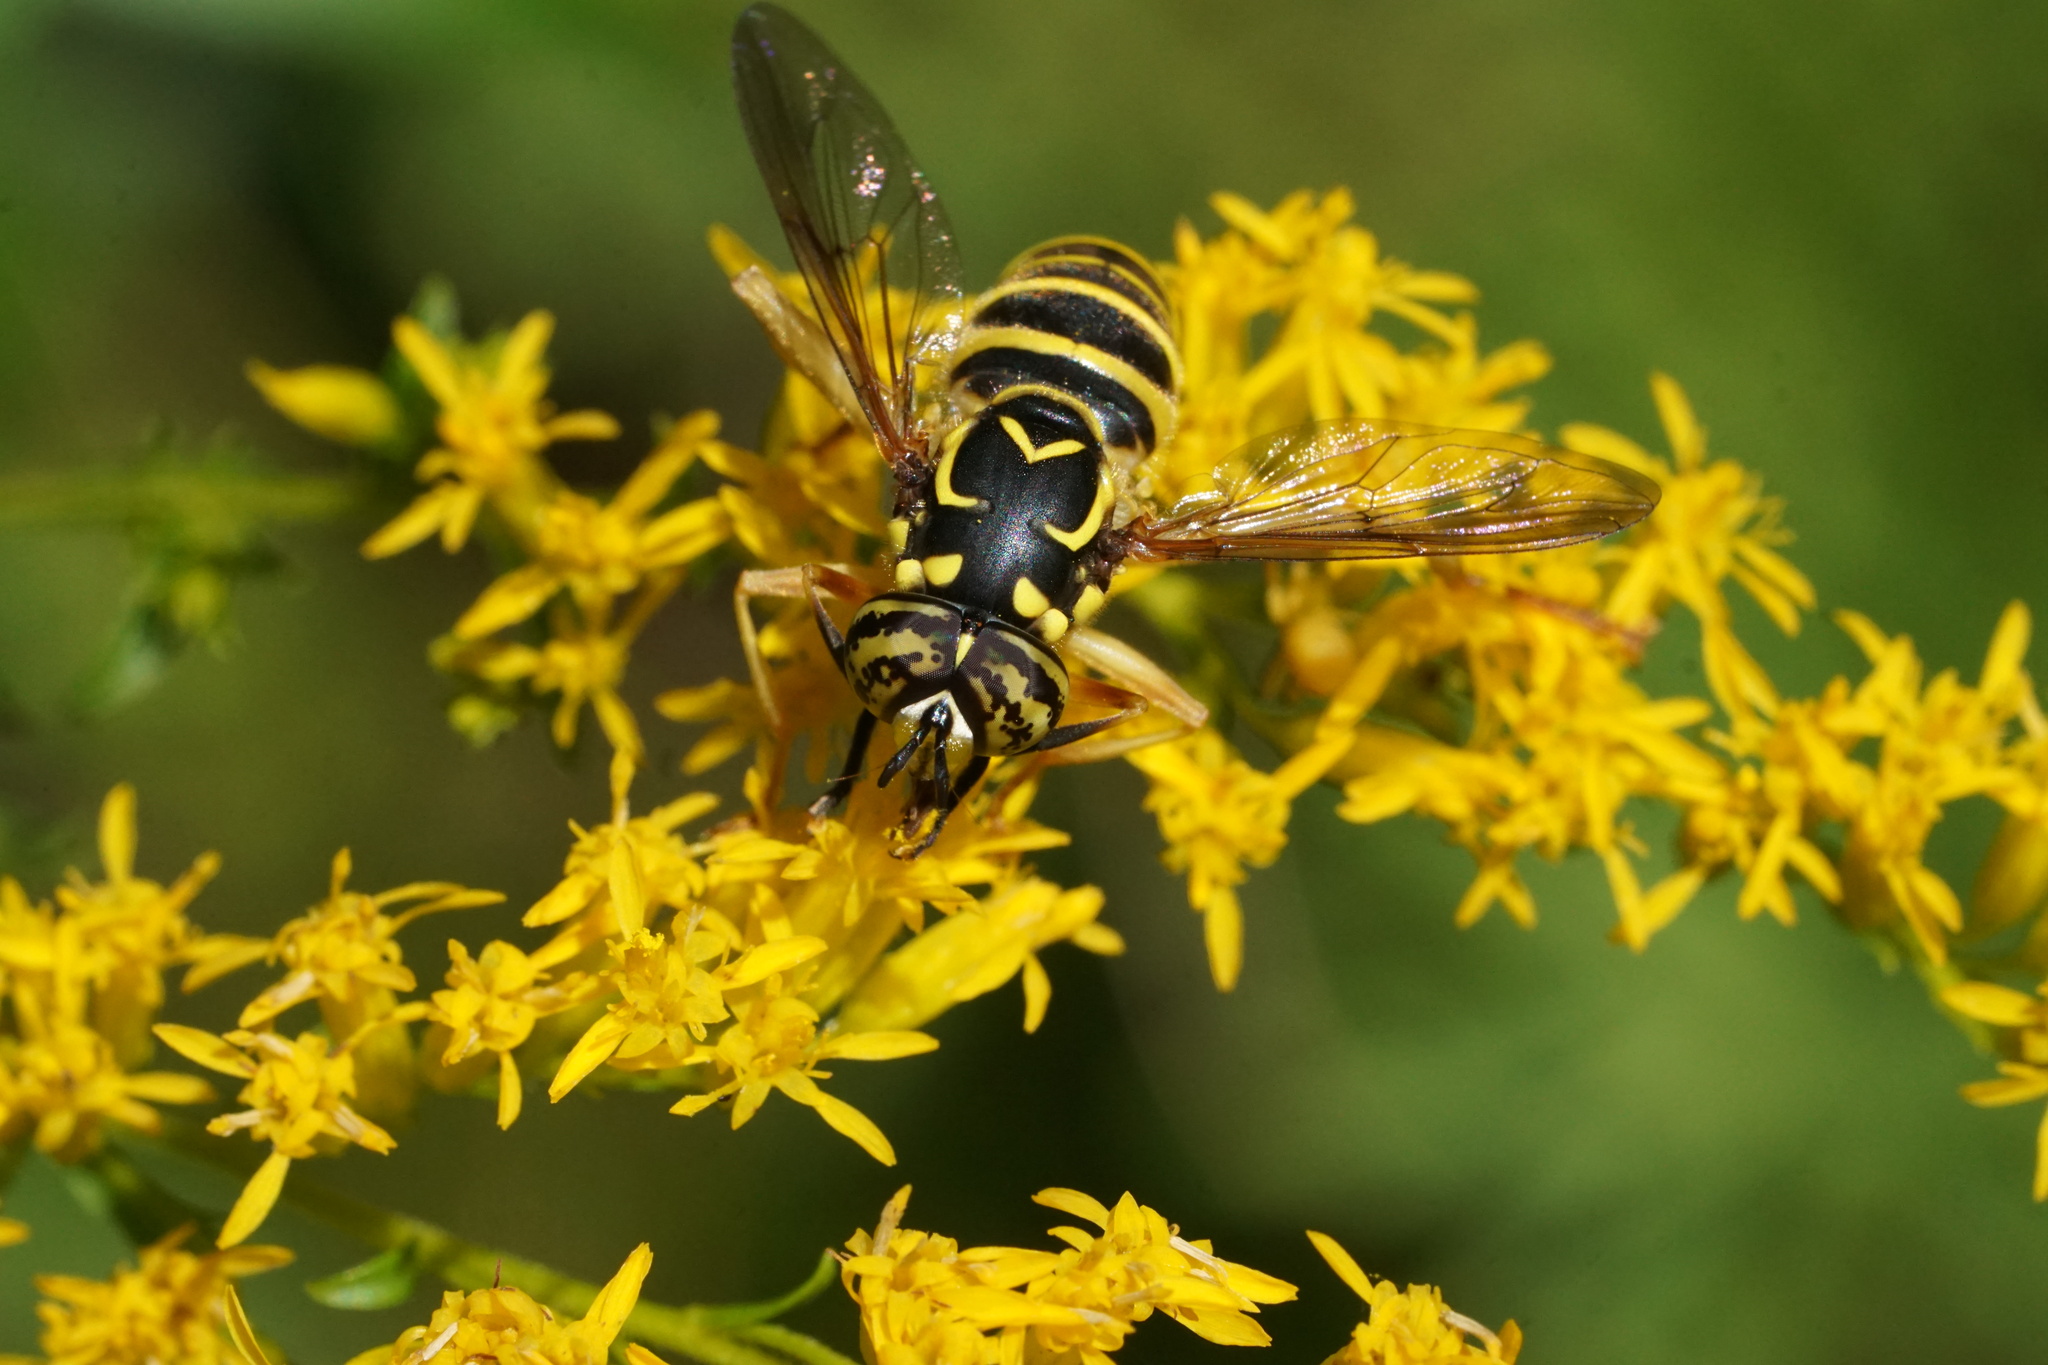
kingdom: Animalia
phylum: Arthropoda
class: Insecta
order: Diptera
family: Syrphidae
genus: Spilomyia
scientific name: Spilomyia longicornis
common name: Eastern hornet fly
